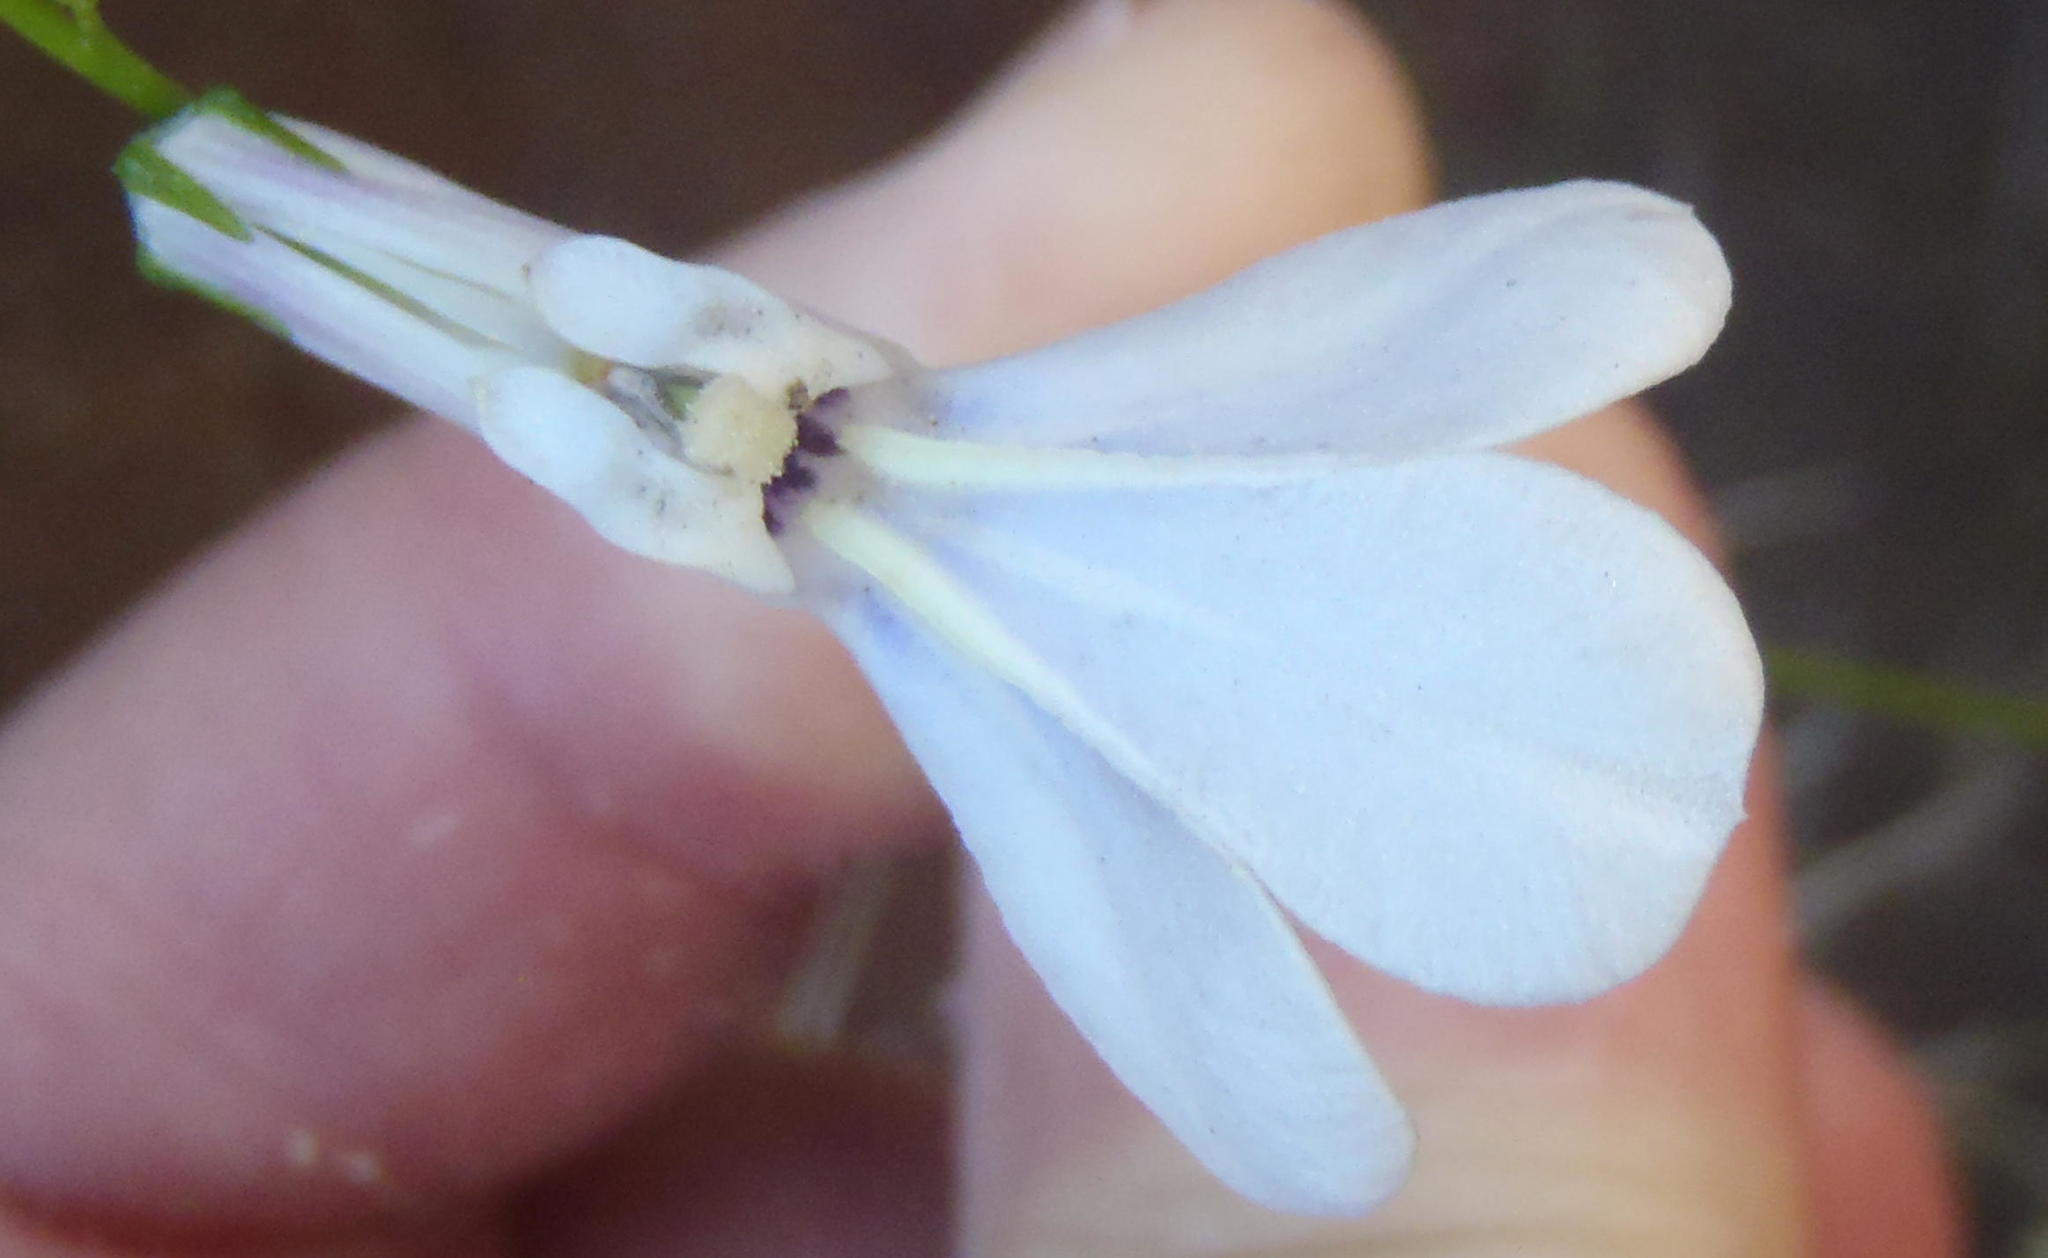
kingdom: Plantae
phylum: Tracheophyta
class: Magnoliopsida
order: Asterales
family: Campanulaceae
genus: Lobelia
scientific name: Lobelia tomentosa
